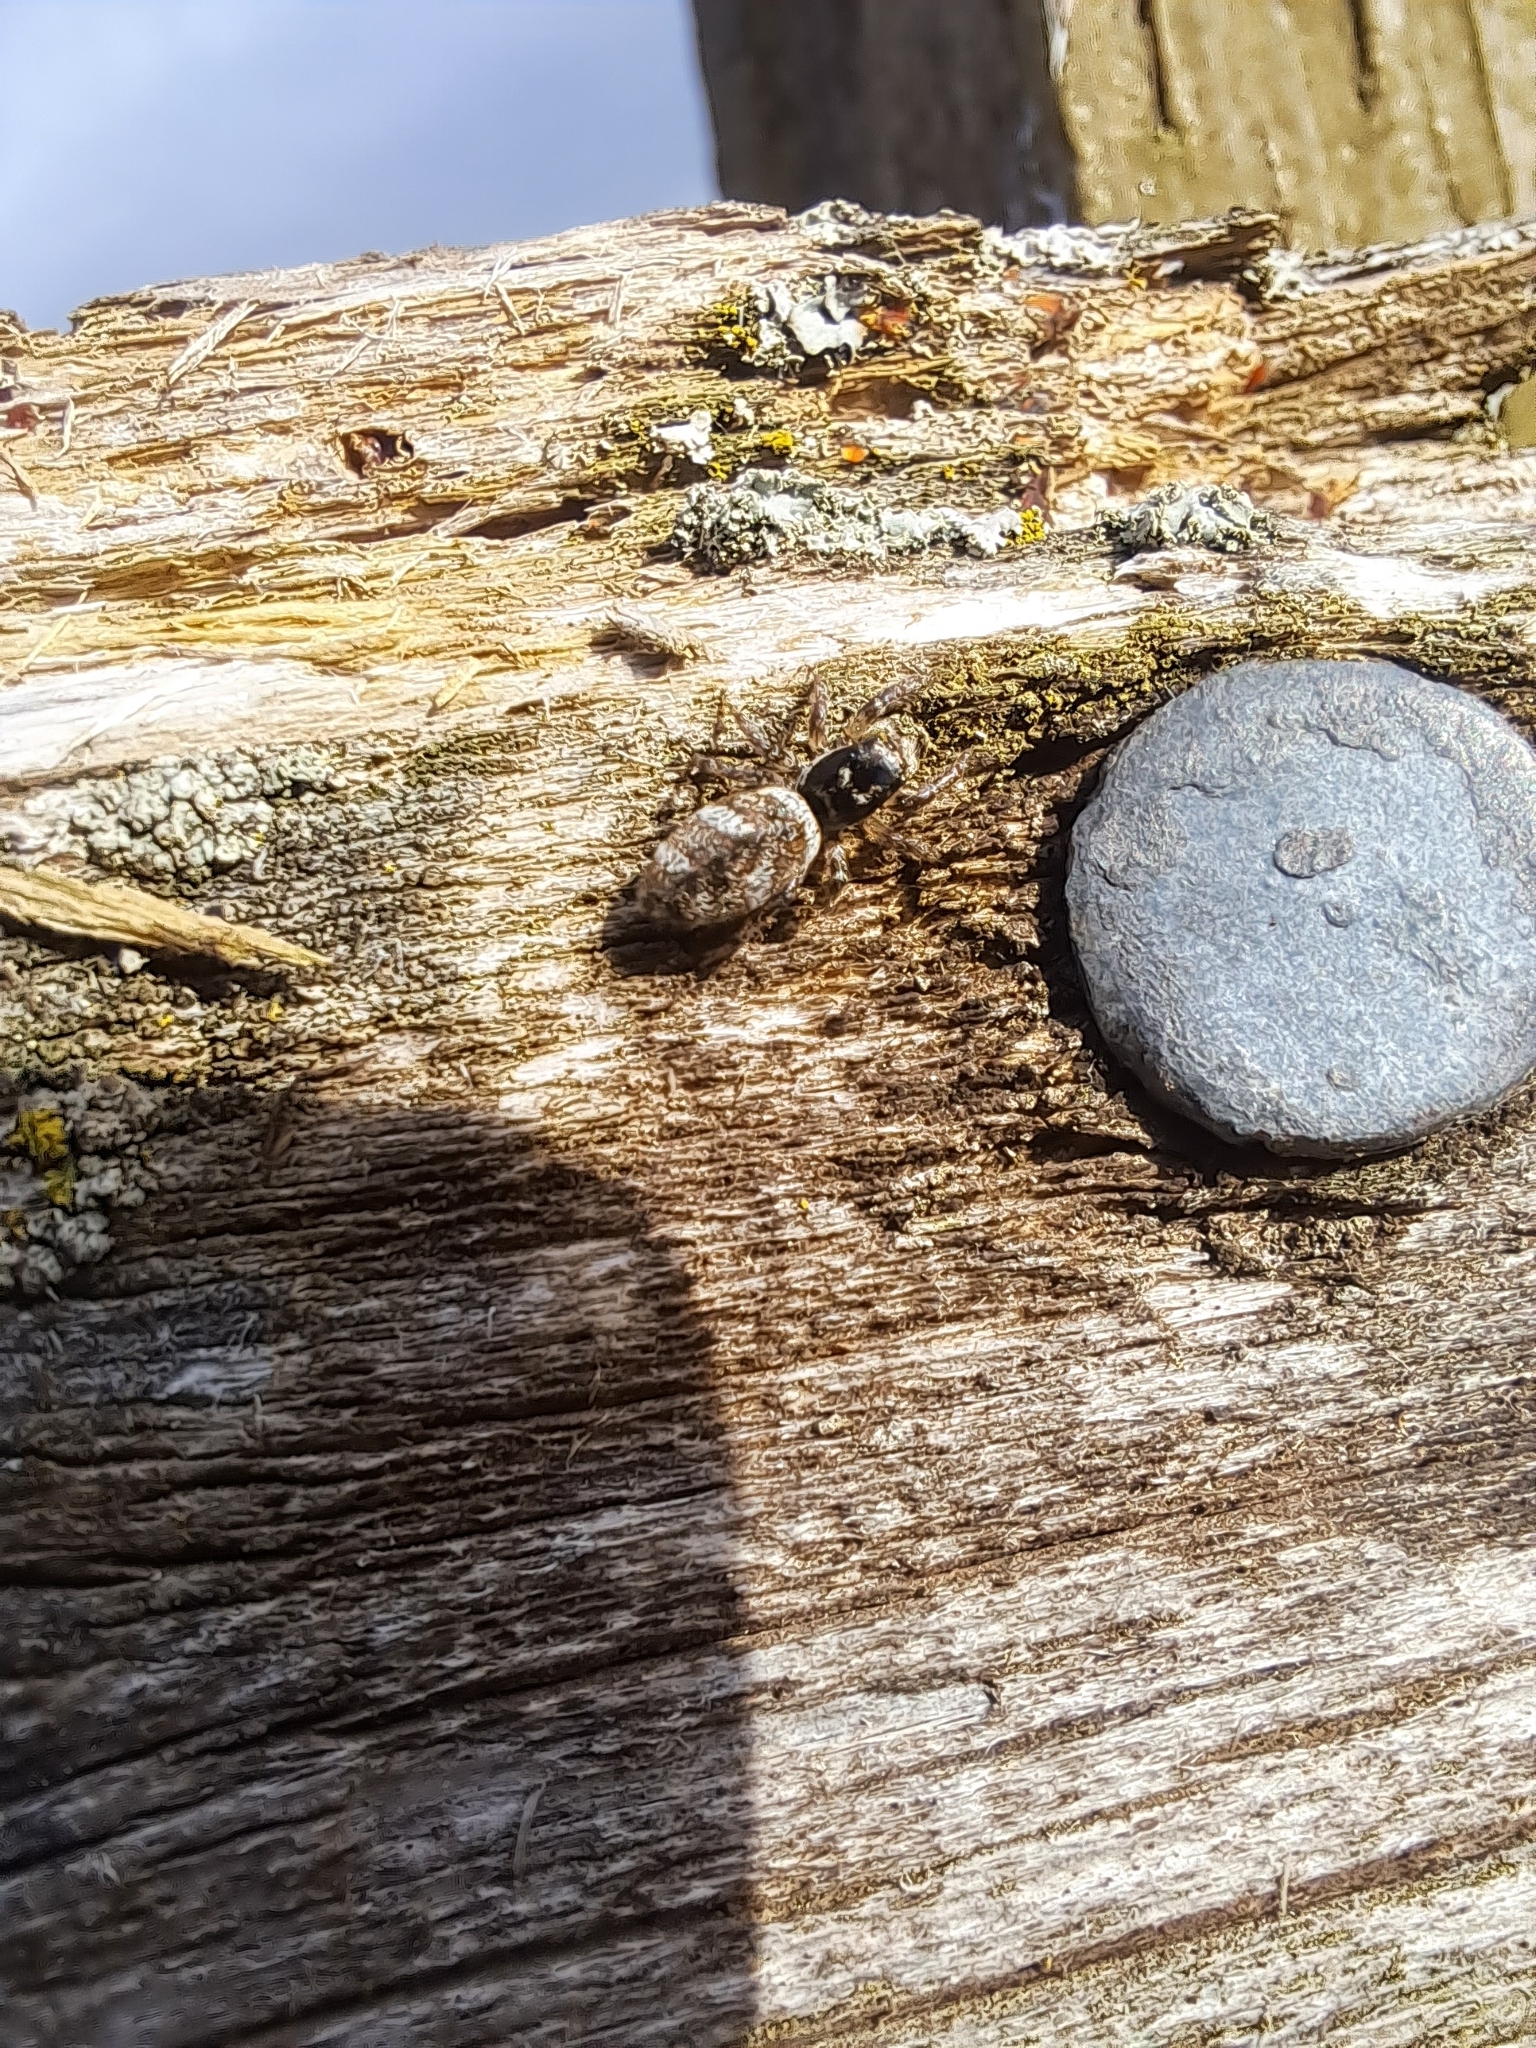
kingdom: Animalia
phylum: Arthropoda
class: Arachnida
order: Araneae
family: Salticidae
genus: Salticus
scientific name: Salticus scenicus
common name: Zebra jumper
